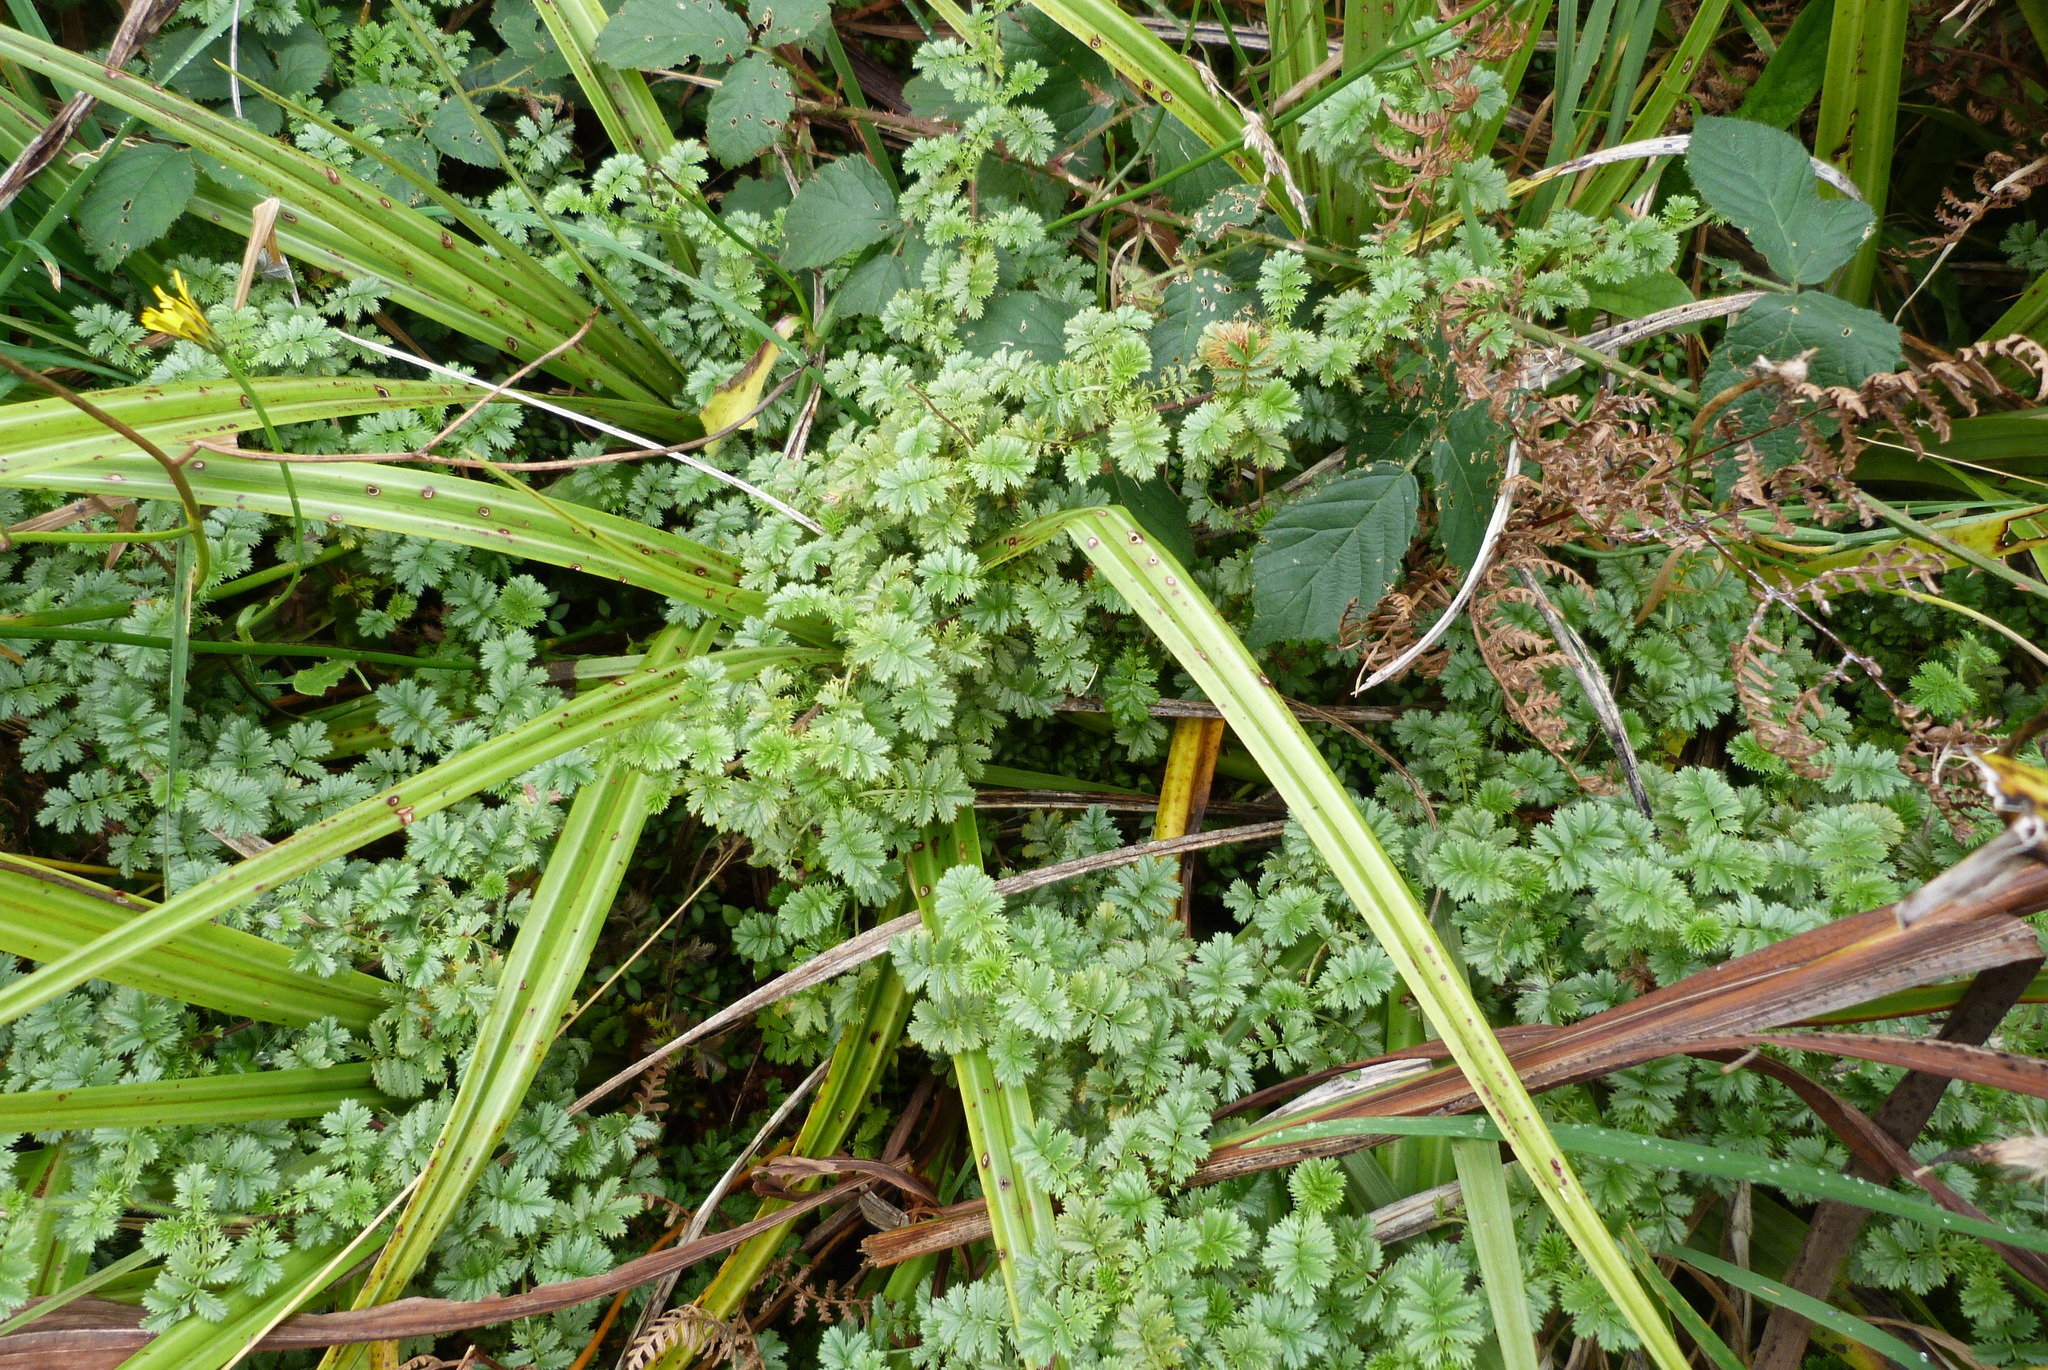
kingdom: Plantae
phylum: Tracheophyta
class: Magnoliopsida
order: Rosales
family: Rosaceae
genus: Acaena
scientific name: Acaena anserinifolia
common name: Bronze pirri-pirri-bur
